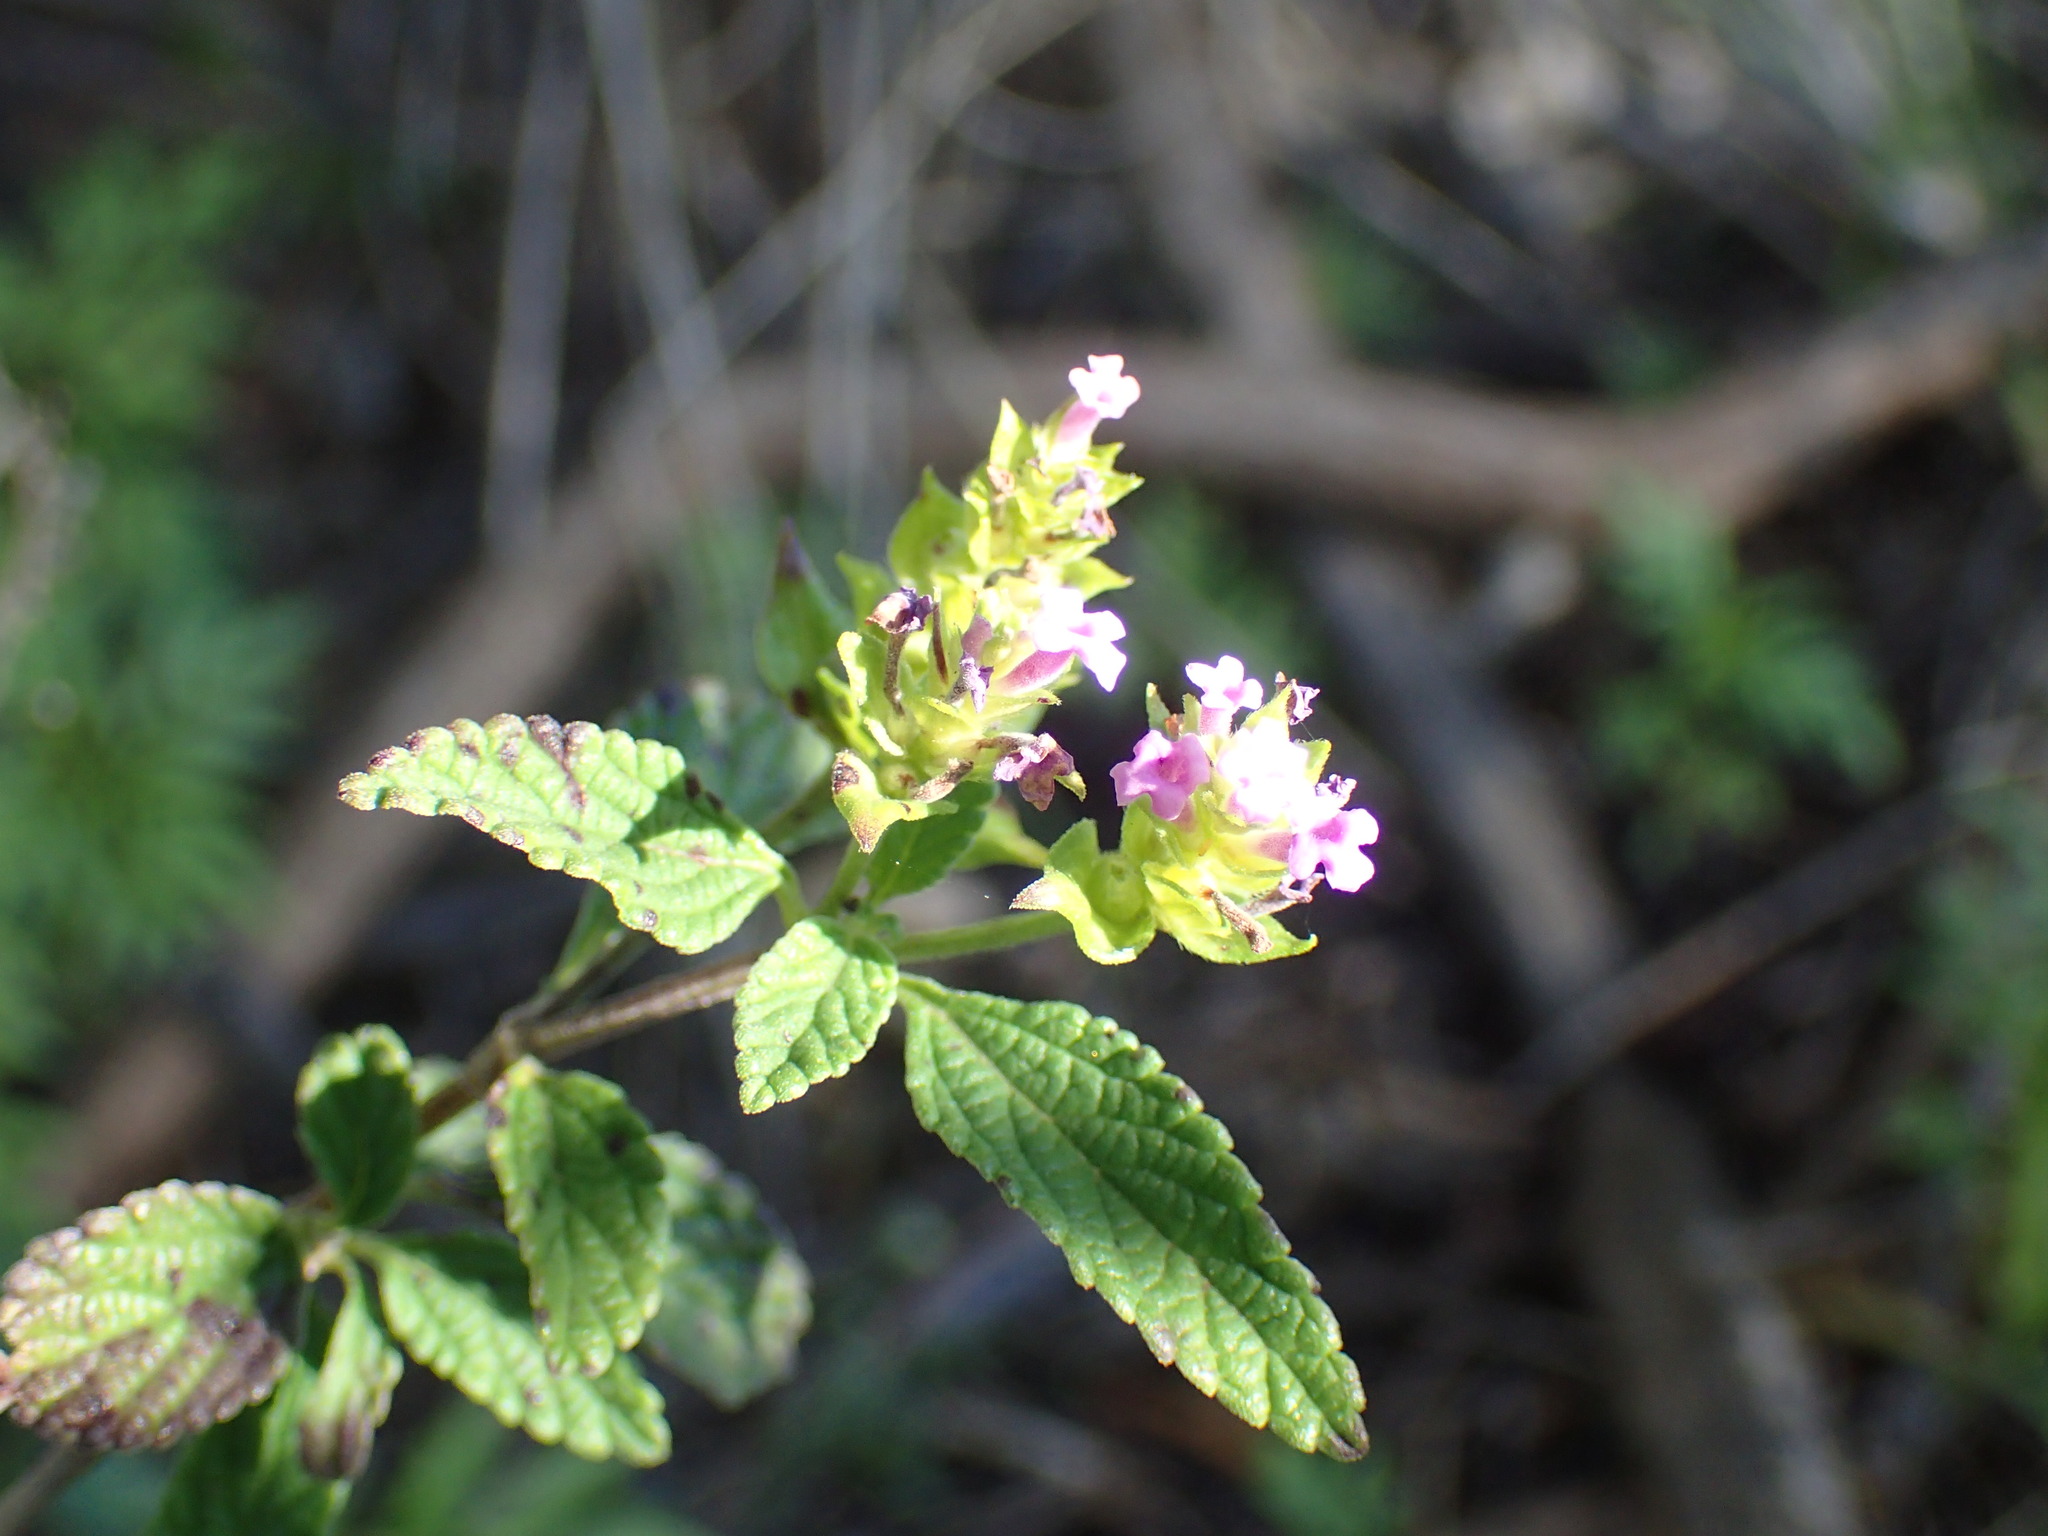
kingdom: Plantae
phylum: Tracheophyta
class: Magnoliopsida
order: Lamiales
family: Verbenaceae
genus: Lantana
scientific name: Lantana rugosa
